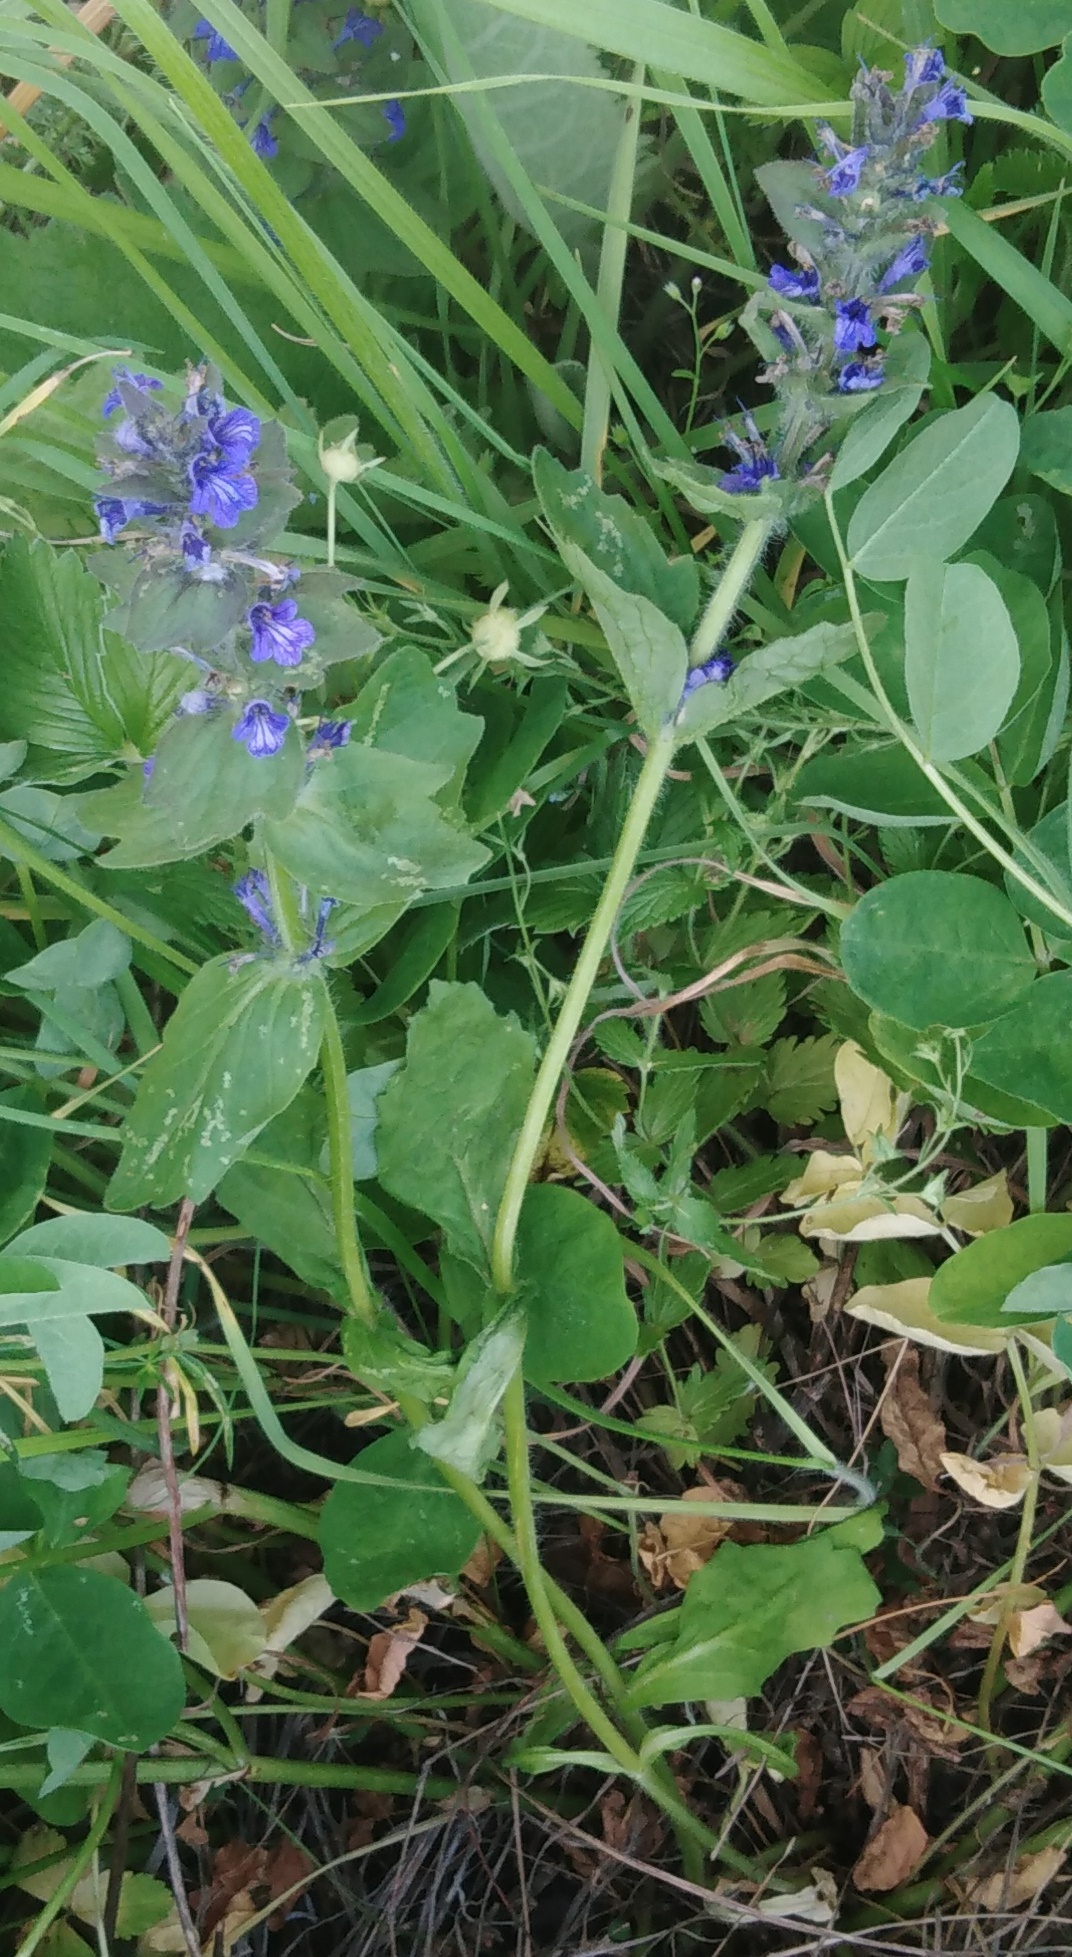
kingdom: Plantae
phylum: Tracheophyta
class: Magnoliopsida
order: Lamiales
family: Lamiaceae
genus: Ajuga
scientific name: Ajuga genevensis
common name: Blue bugle
